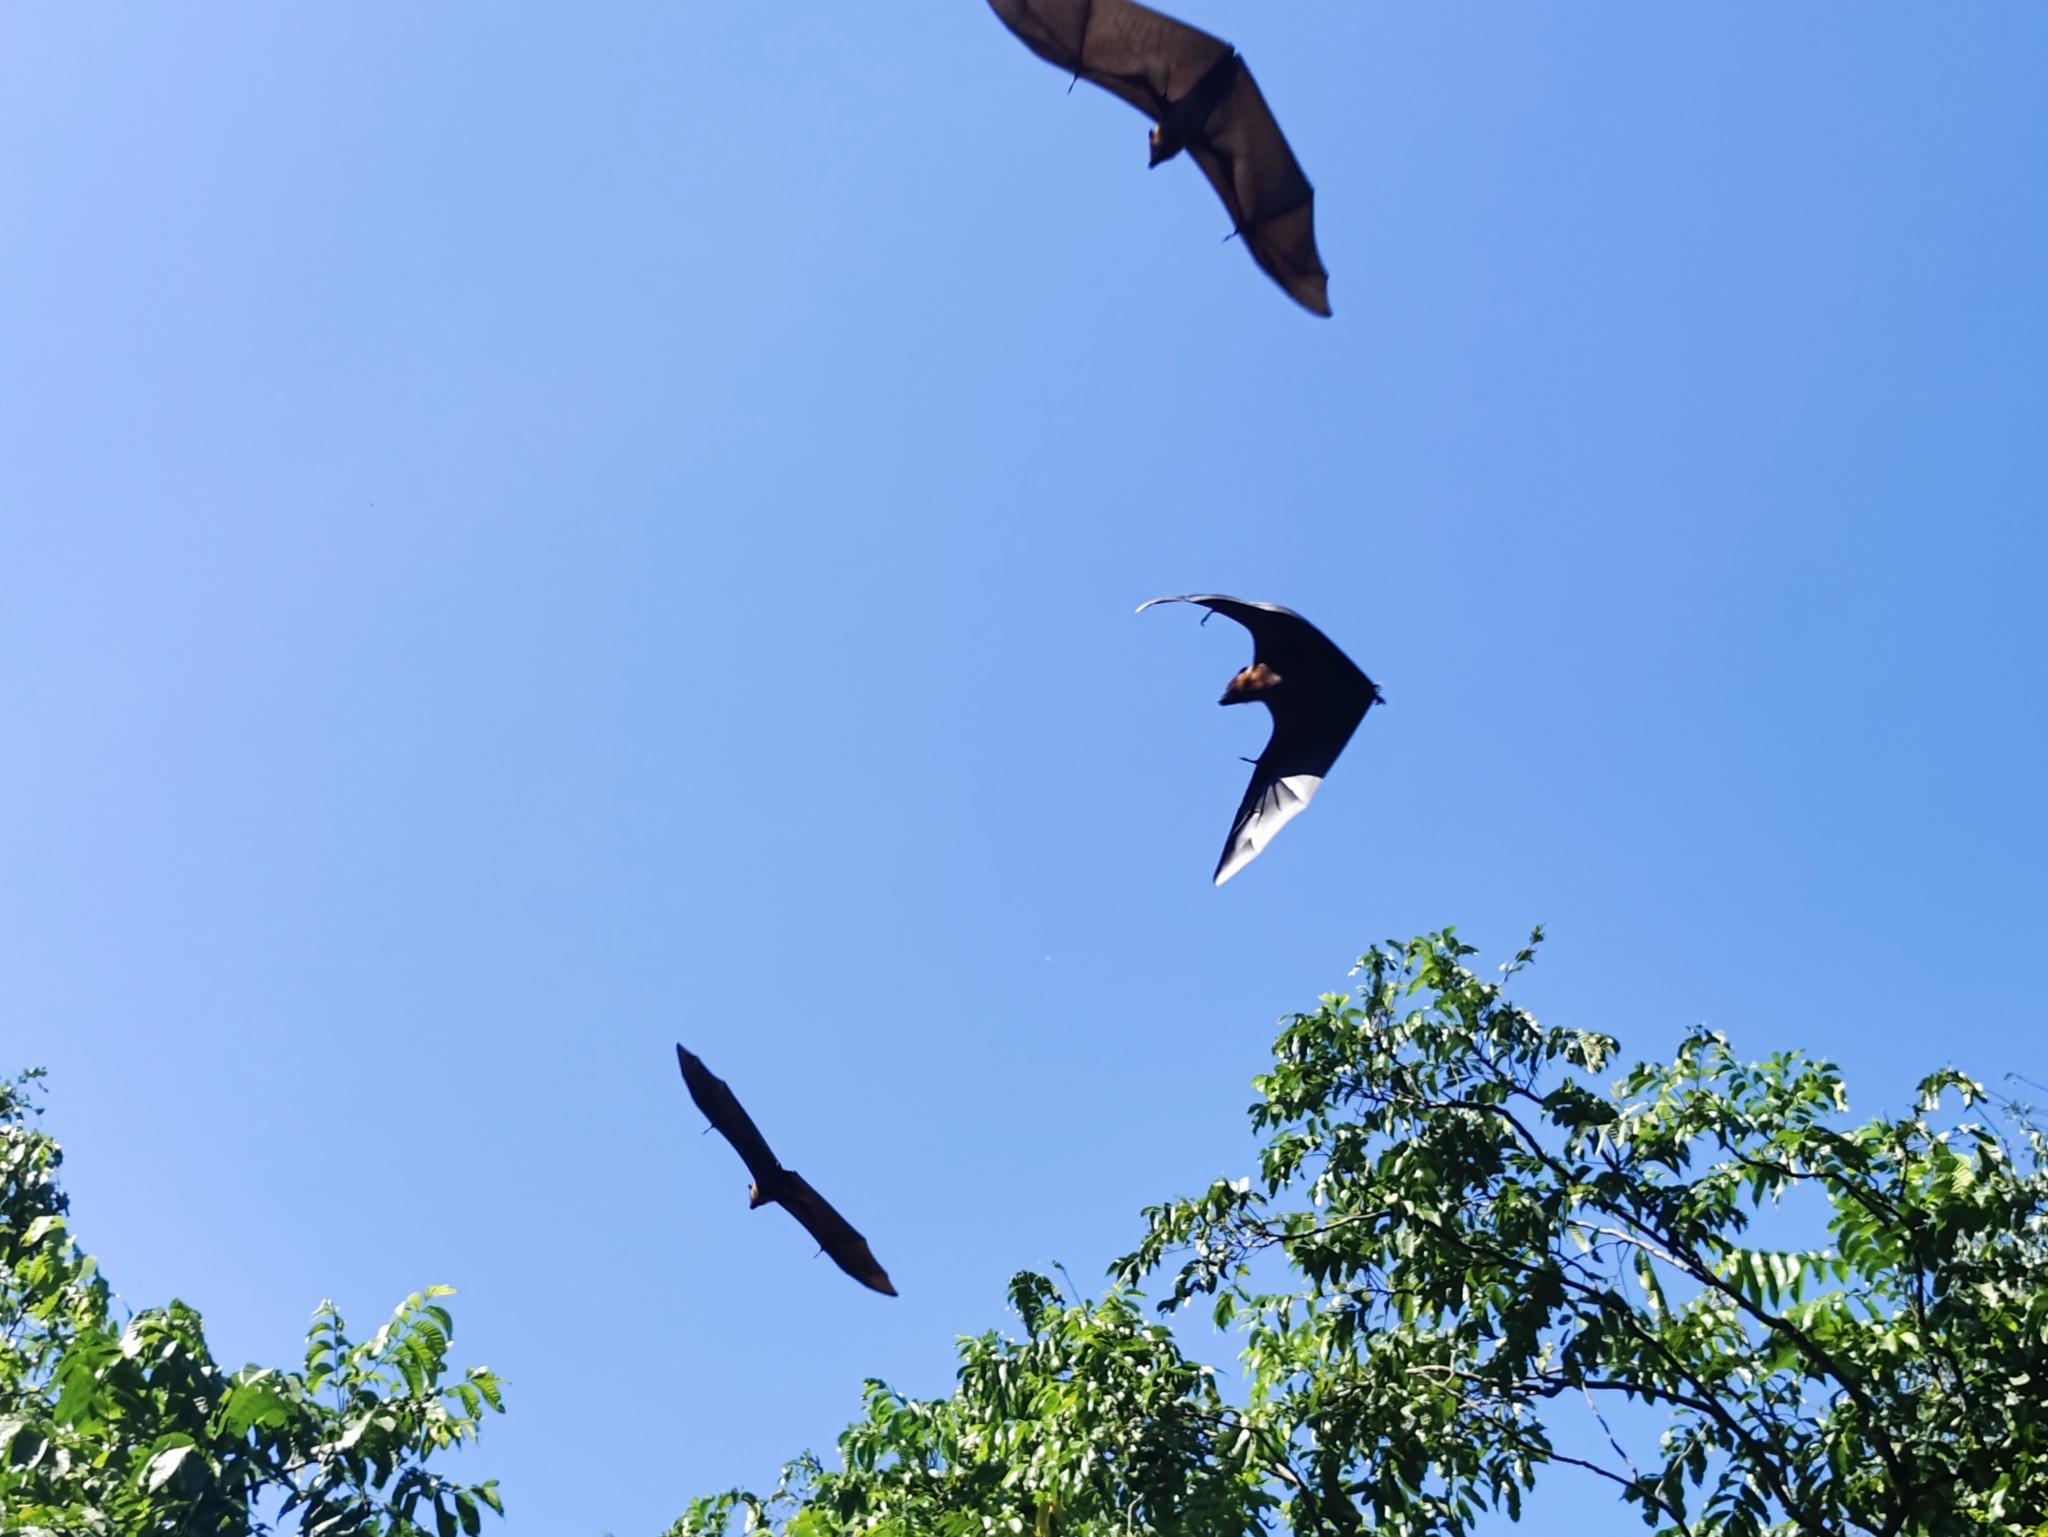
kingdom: Animalia
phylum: Chordata
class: Mammalia
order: Chiroptera
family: Pteropodidae
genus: Pteropus
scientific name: Pteropus vampyrus
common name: Large flying fox
